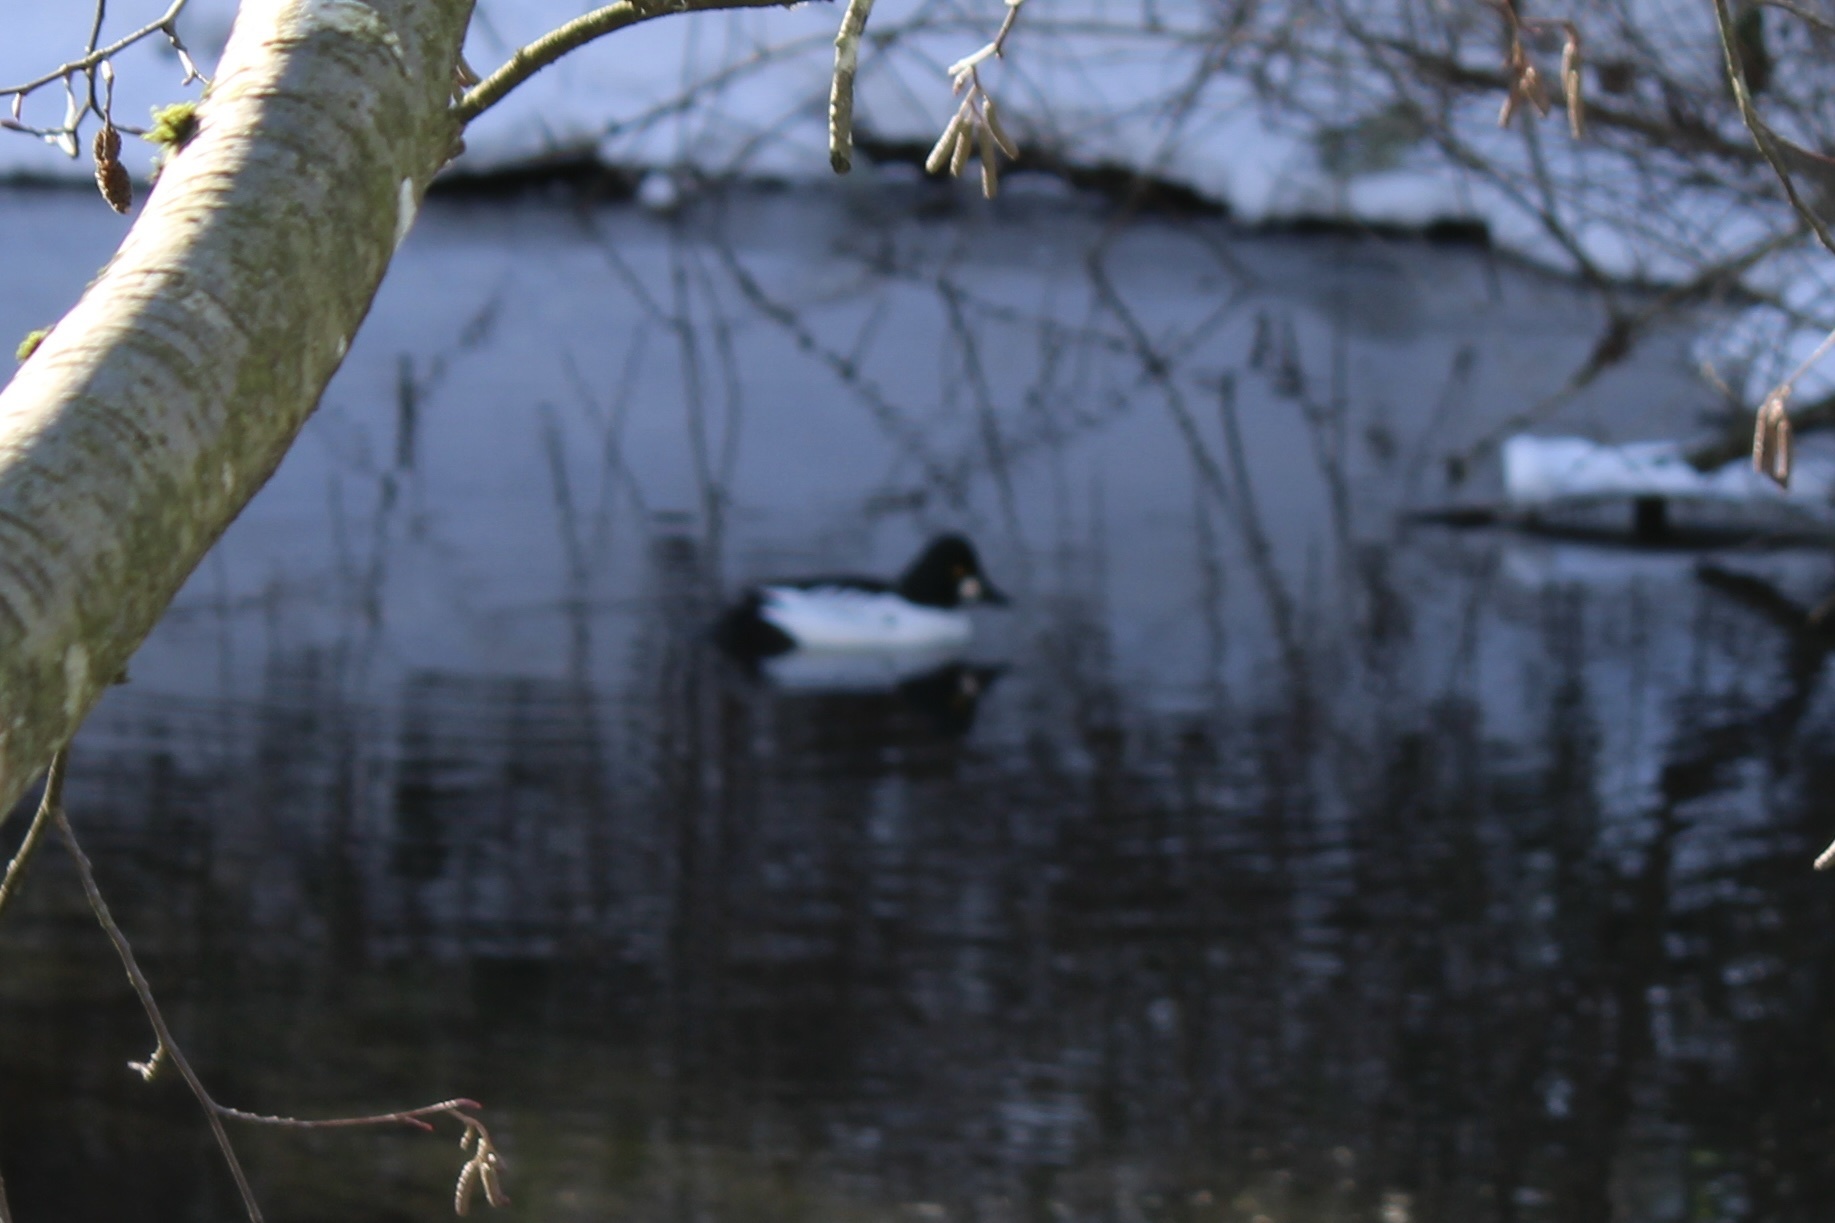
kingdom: Animalia
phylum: Chordata
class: Aves
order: Anseriformes
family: Anatidae
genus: Bucephala
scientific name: Bucephala clangula
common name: Common goldeneye
